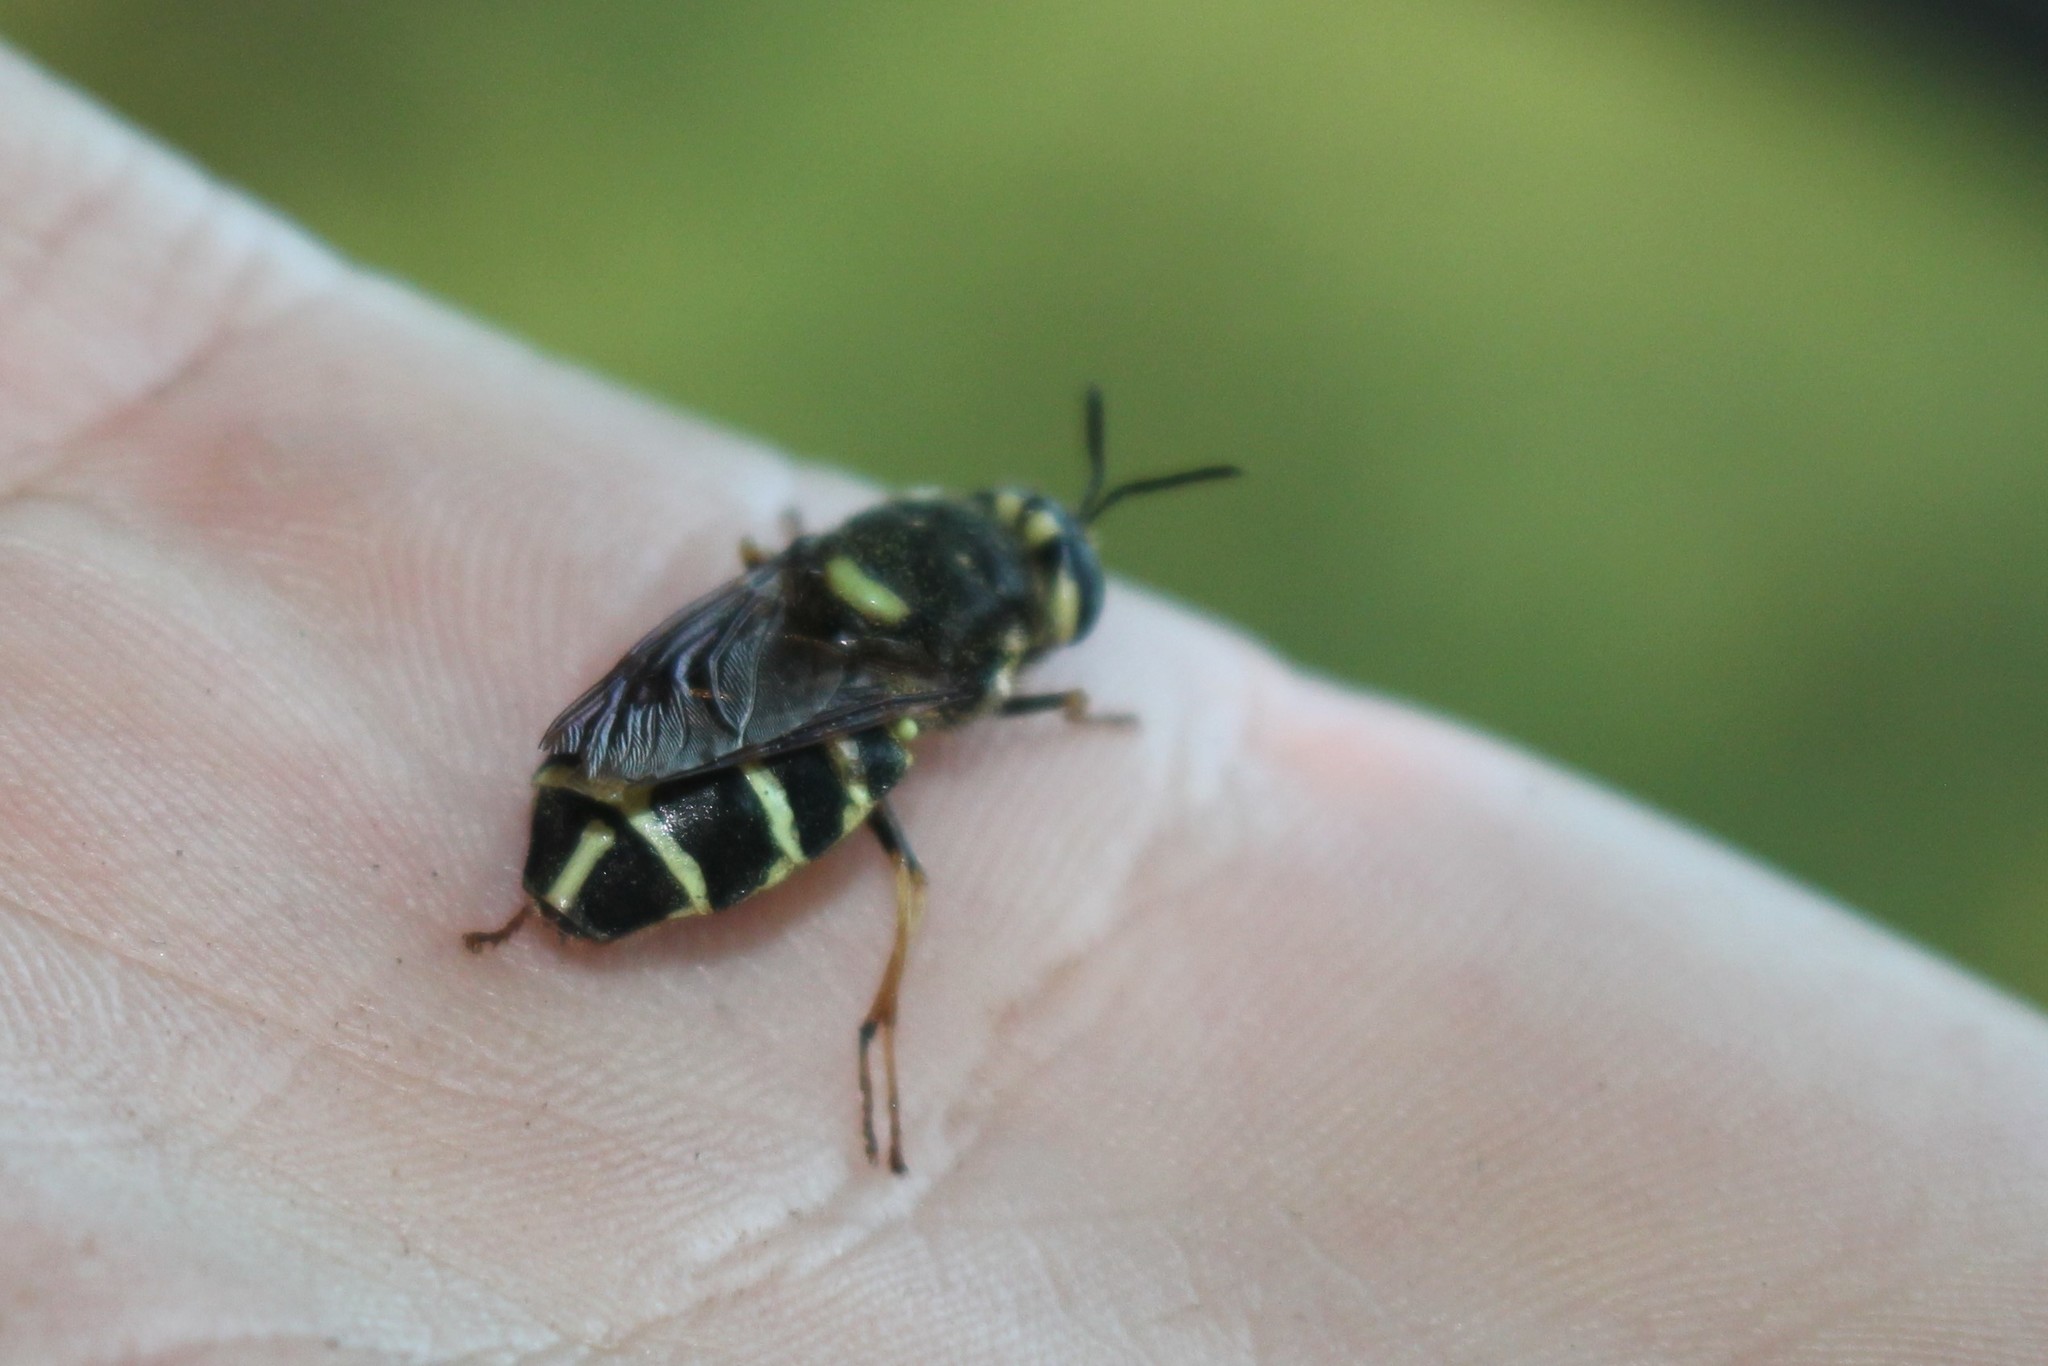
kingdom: Animalia
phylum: Arthropoda
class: Insecta
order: Diptera
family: Stratiomyidae
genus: Stratiomys
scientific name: Stratiomys badia
